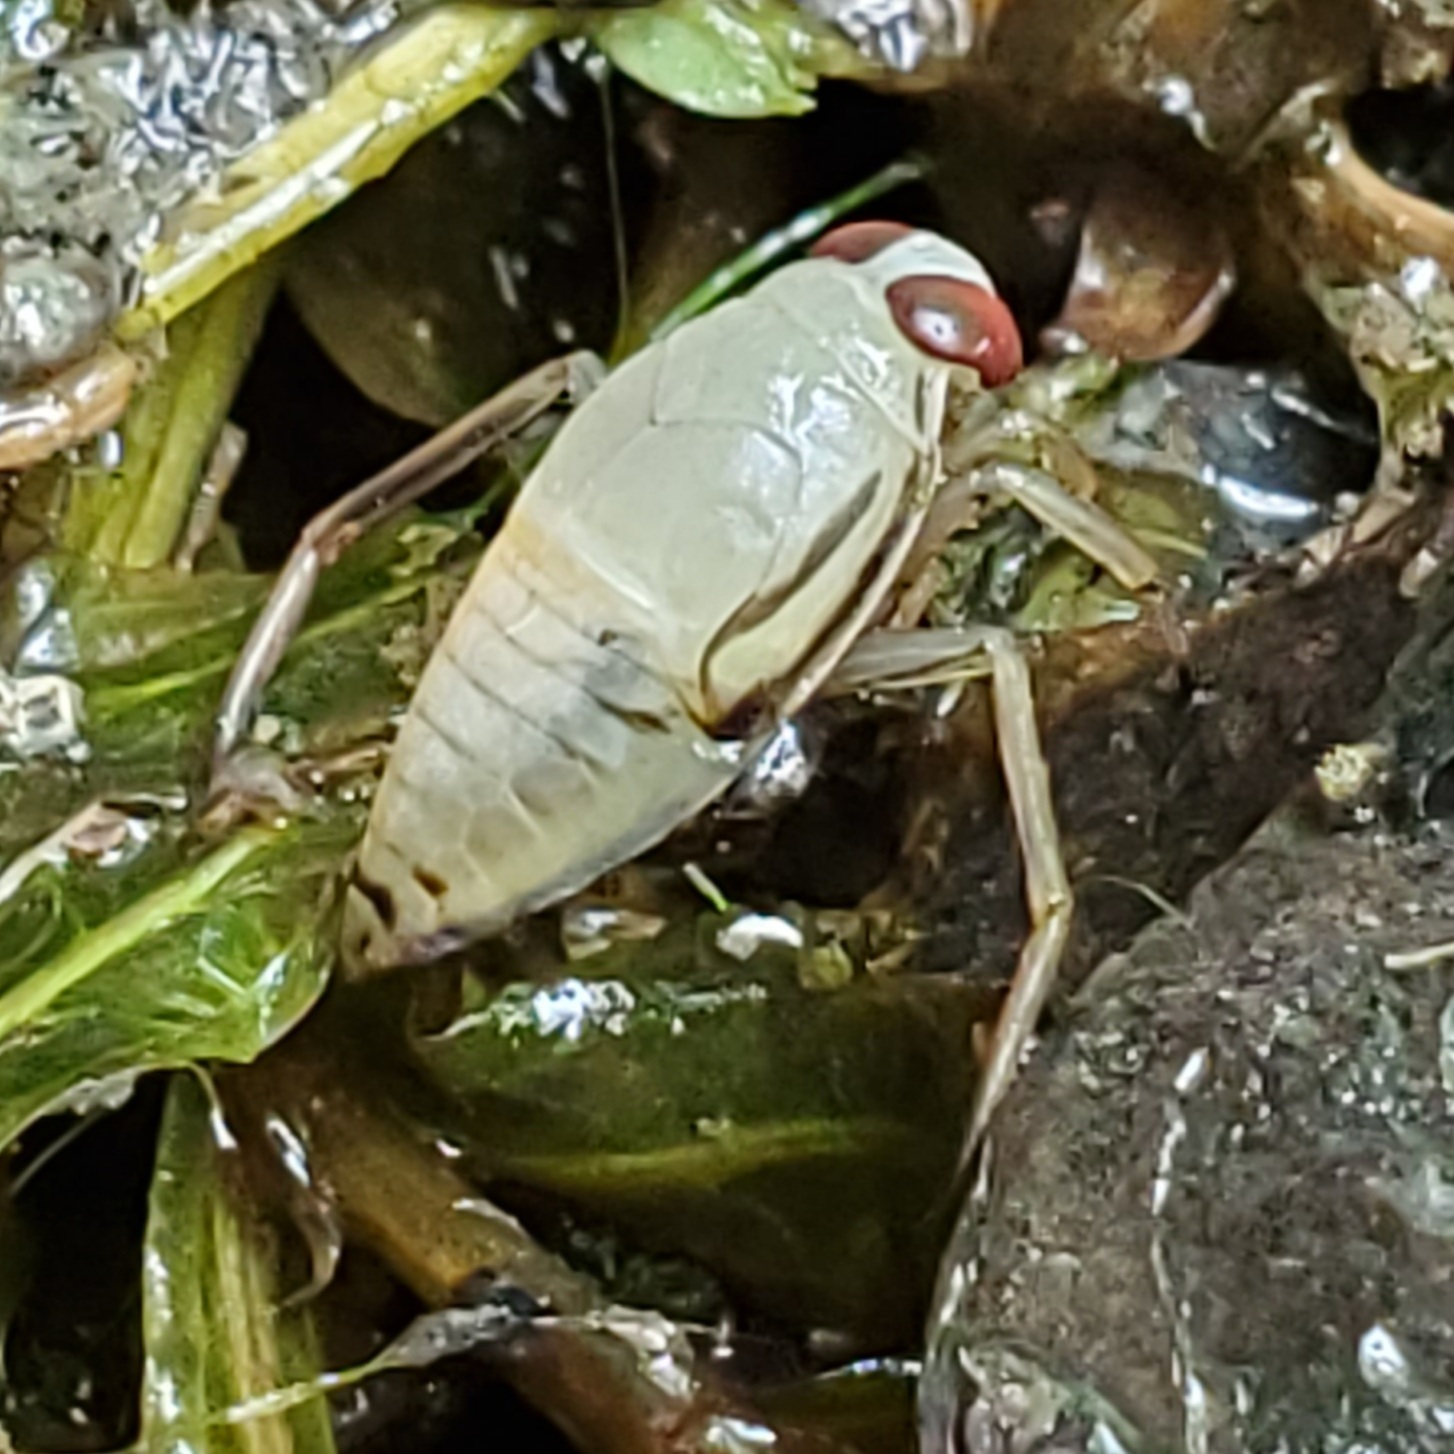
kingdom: Animalia
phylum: Arthropoda
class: Insecta
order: Hemiptera
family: Notonectidae
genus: Notonecta
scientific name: Notonecta
